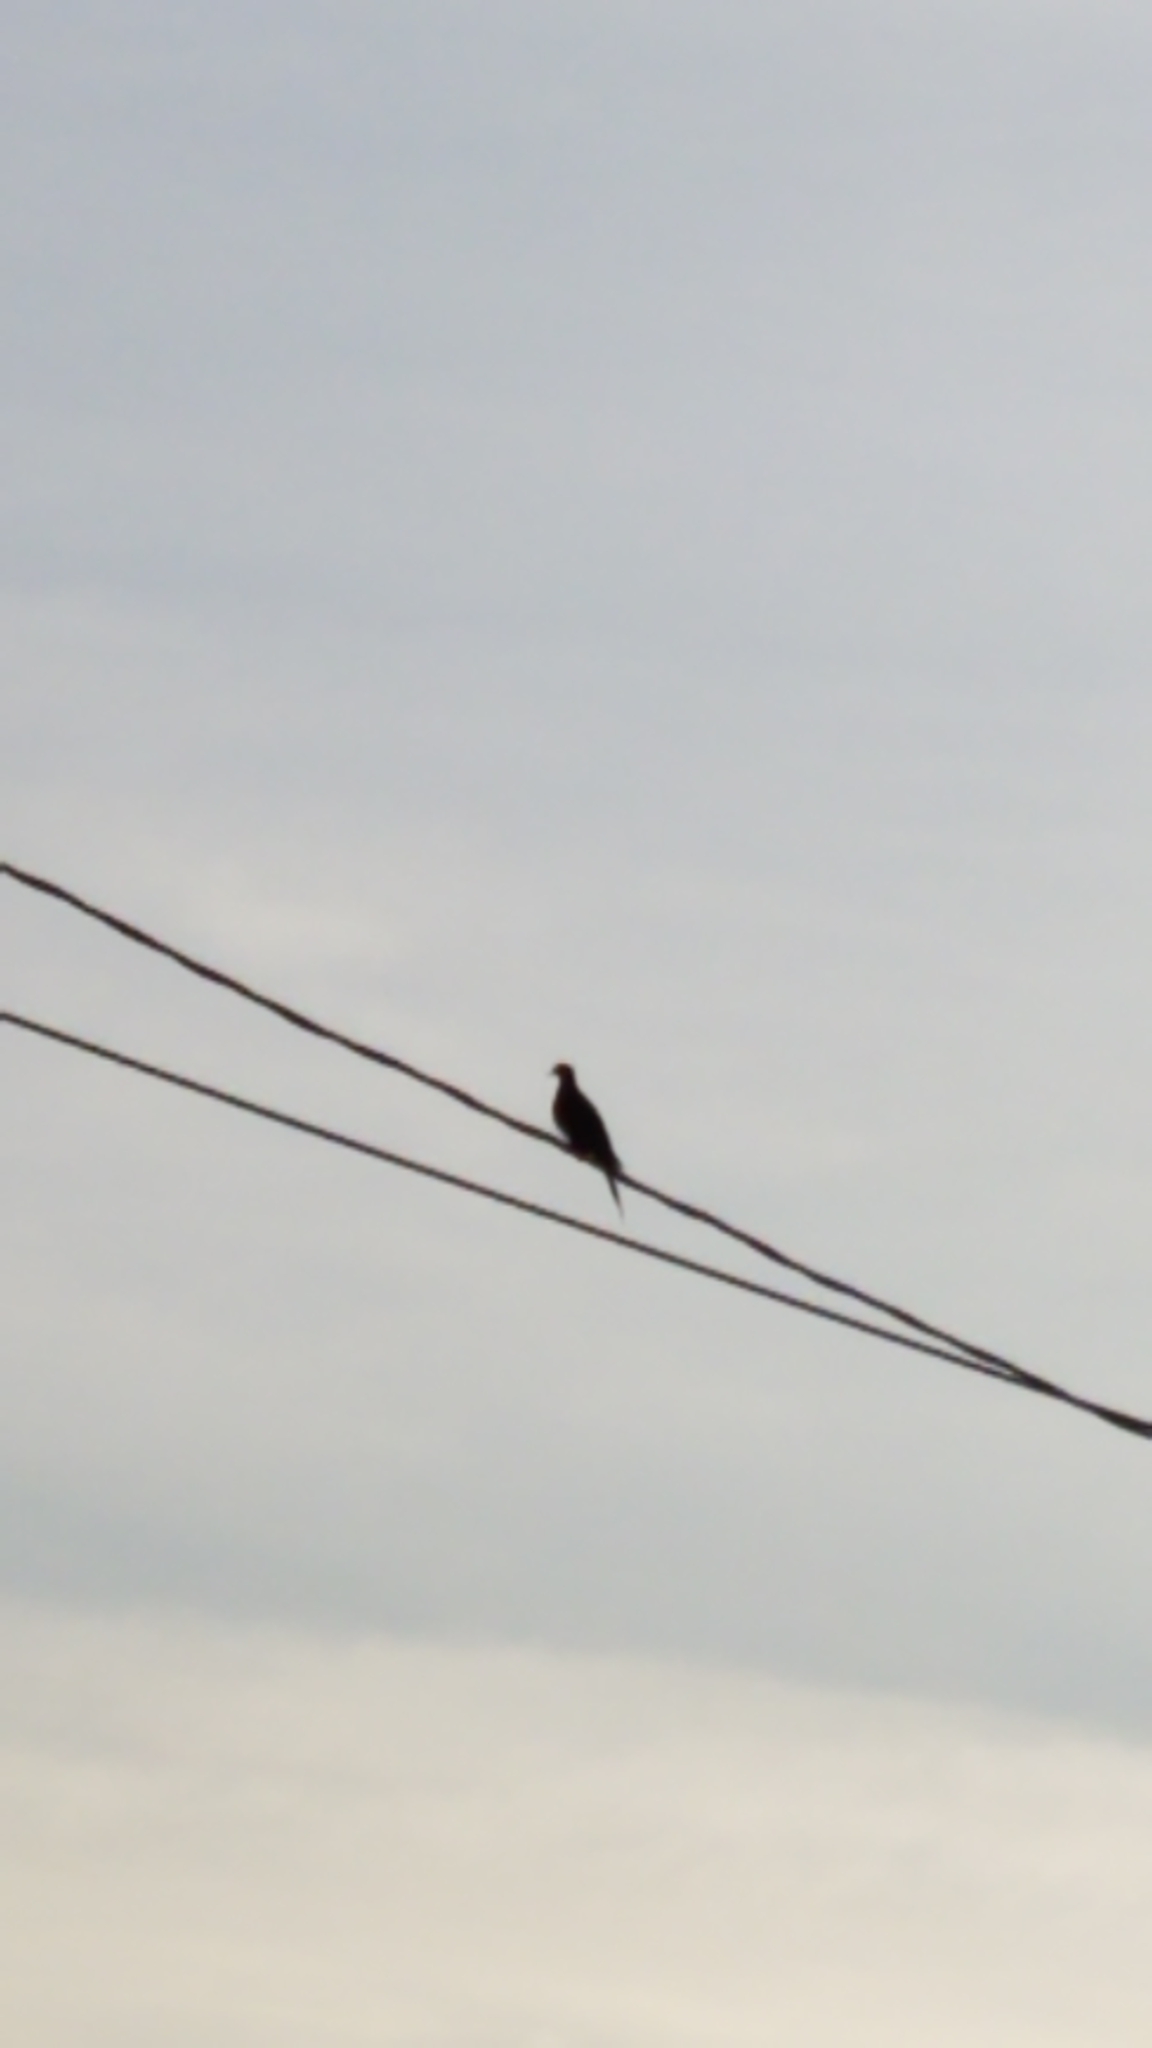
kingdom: Animalia
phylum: Chordata
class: Aves
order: Columbiformes
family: Columbidae
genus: Zenaida
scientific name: Zenaida macroura
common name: Mourning dove
